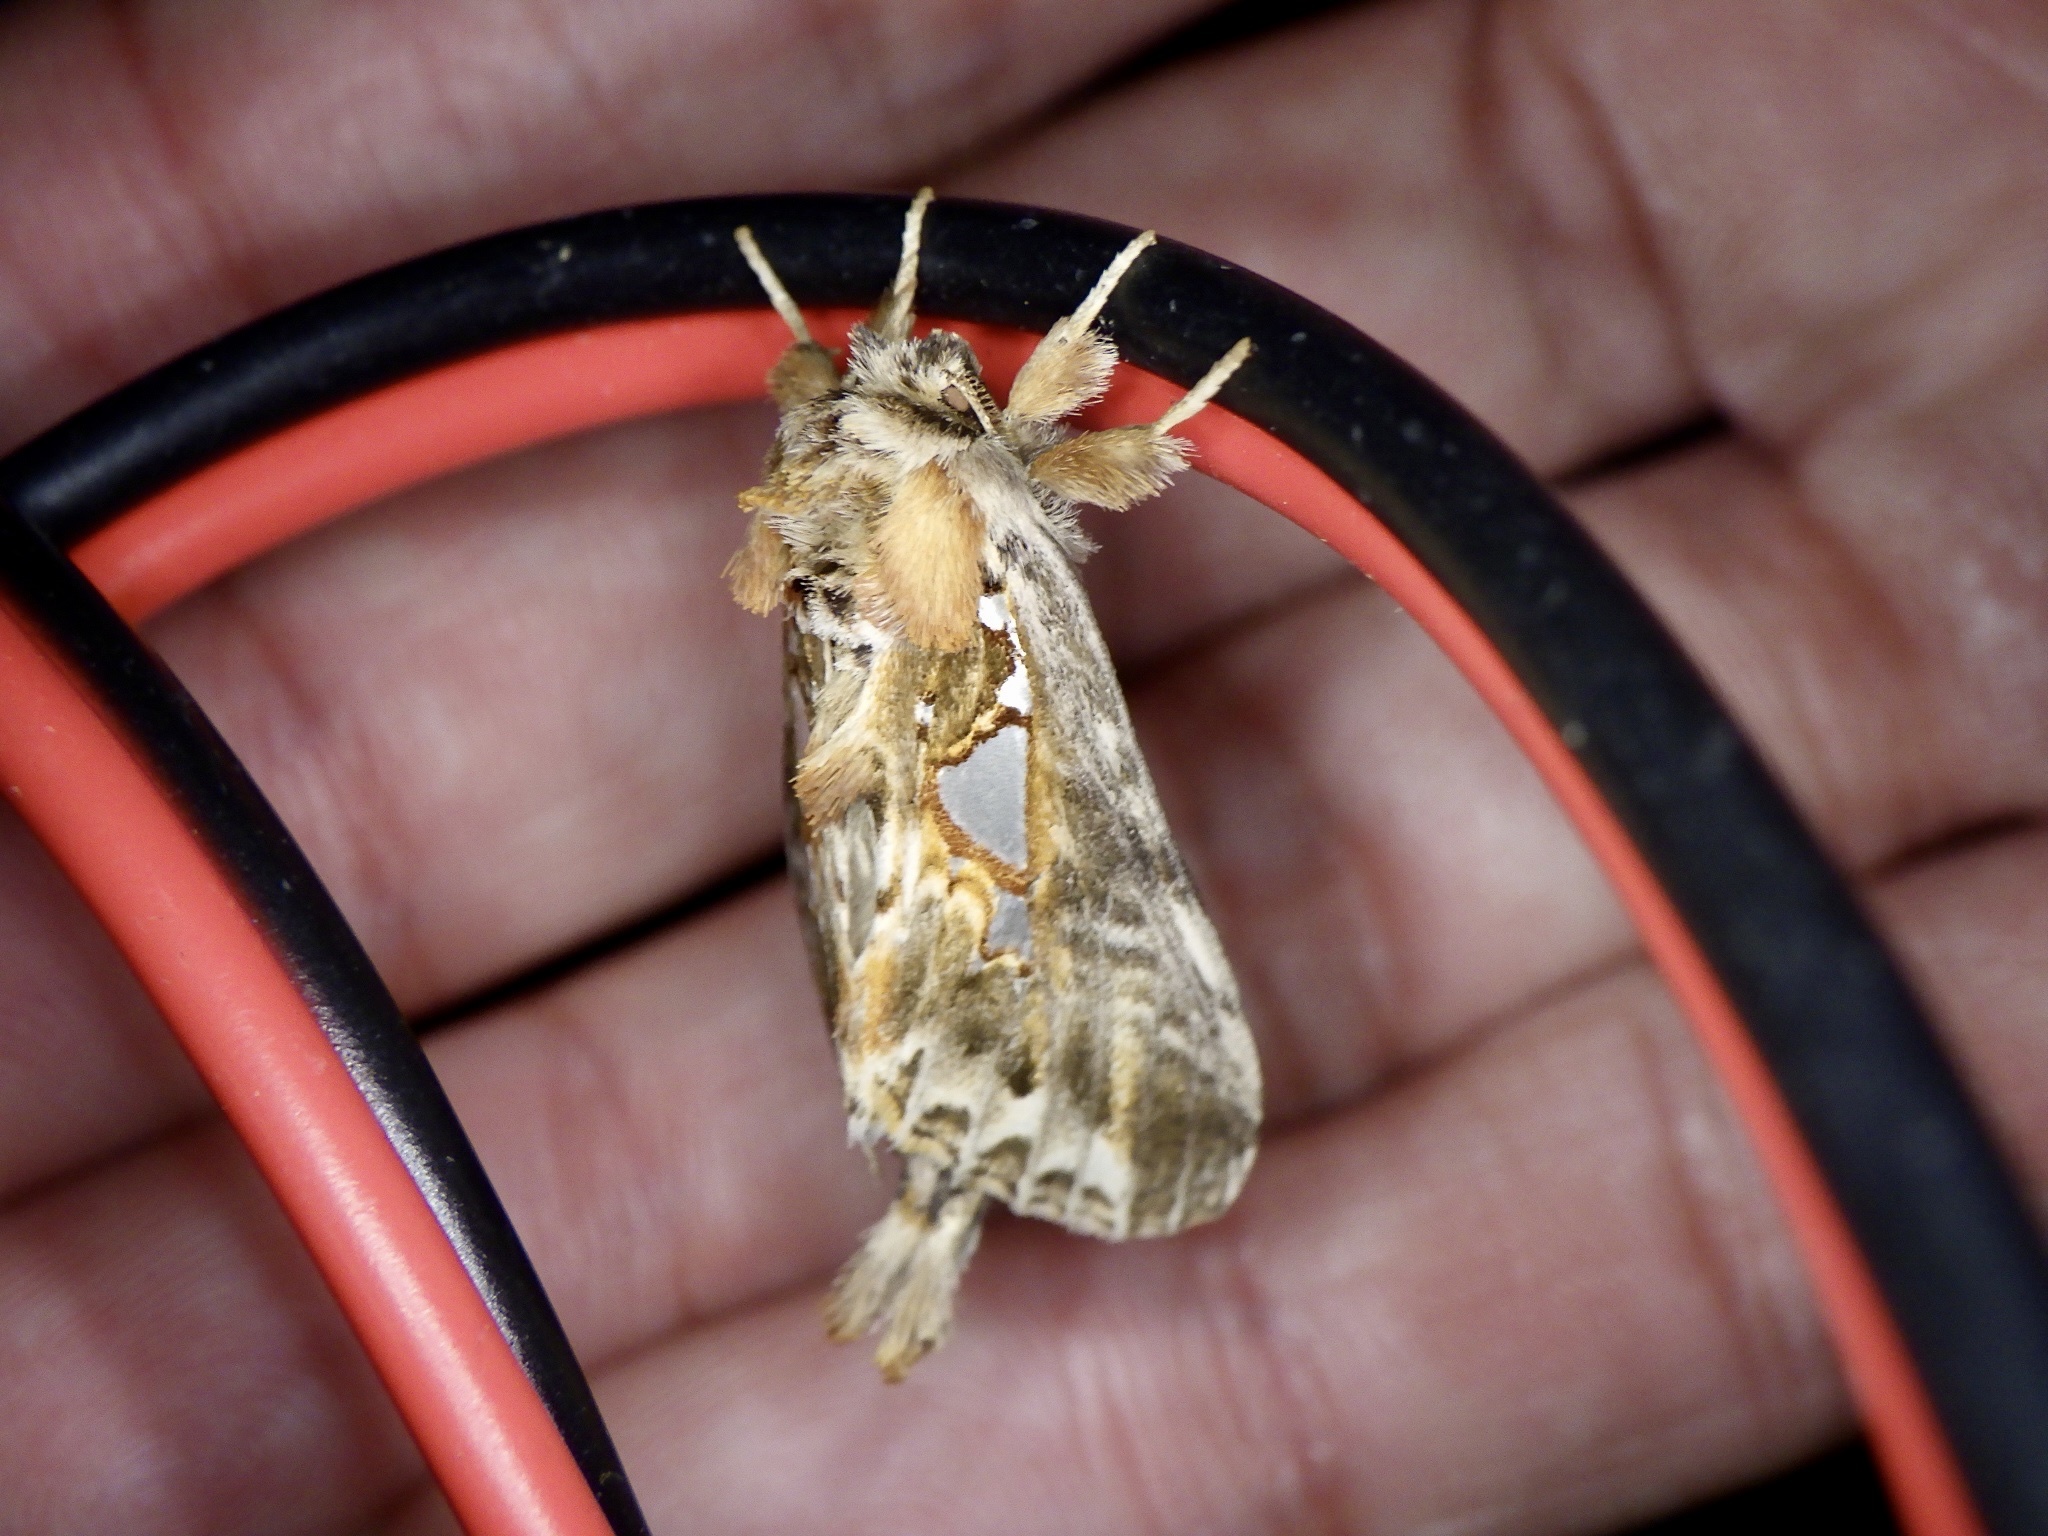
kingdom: Animalia
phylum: Arthropoda
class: Insecta
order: Lepidoptera
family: Notodontidae
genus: Spatalia
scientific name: Spatalia doerriesi
